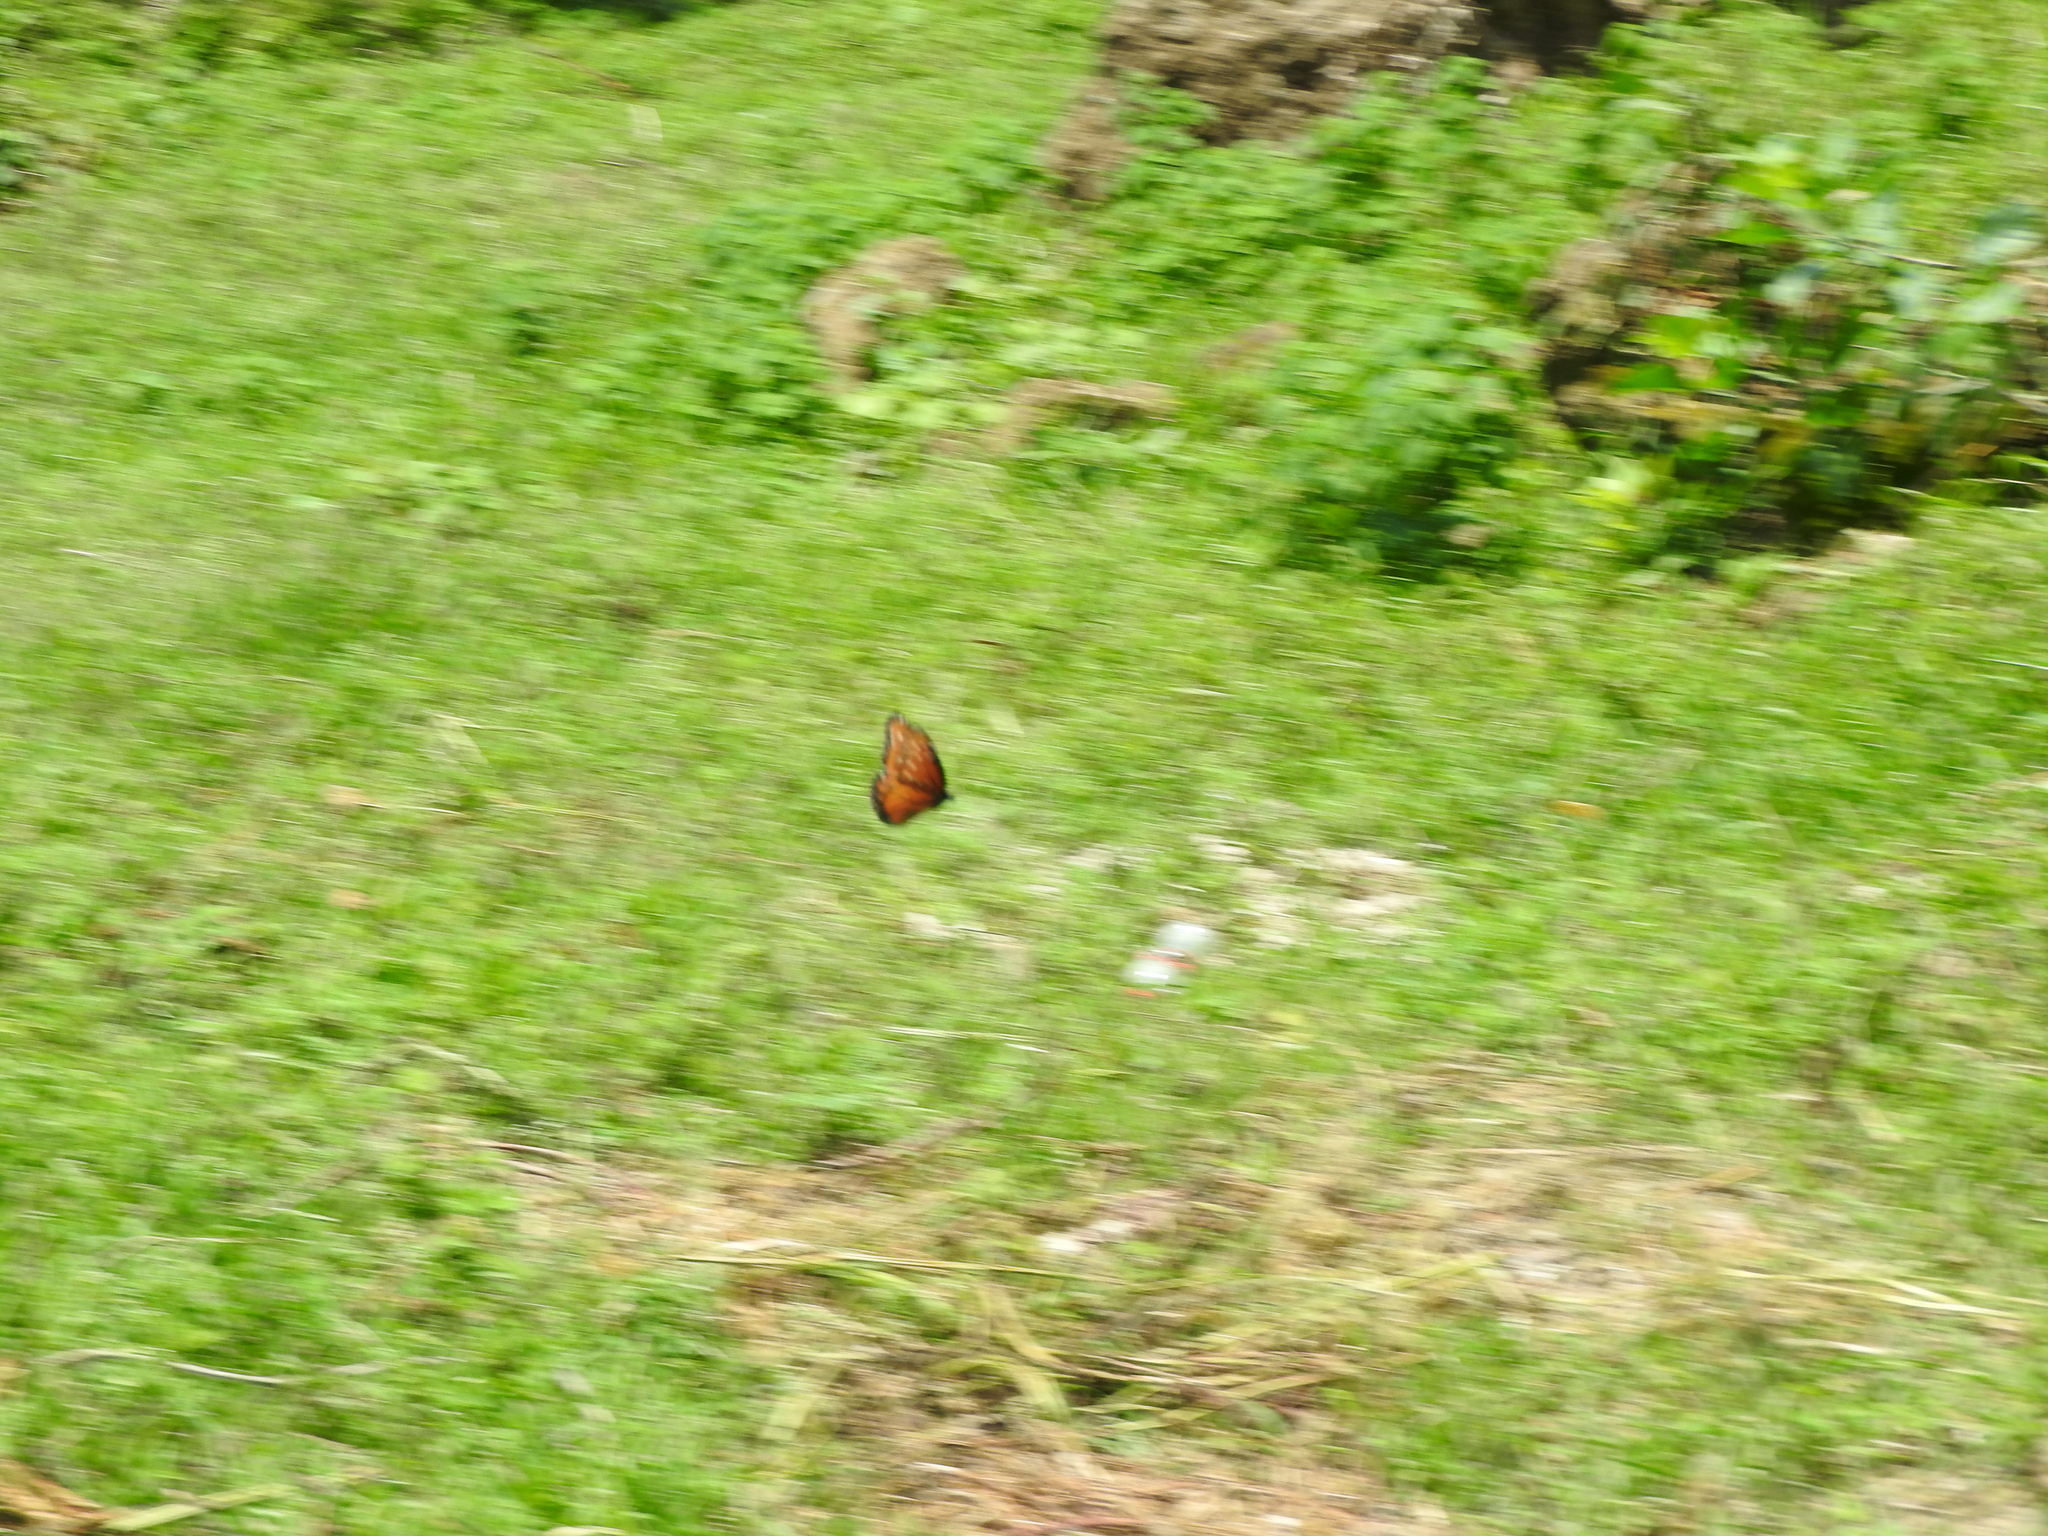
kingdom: Animalia
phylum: Arthropoda
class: Insecta
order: Lepidoptera
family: Nymphalidae
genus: Danaus
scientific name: Danaus gilippus
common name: Queen
